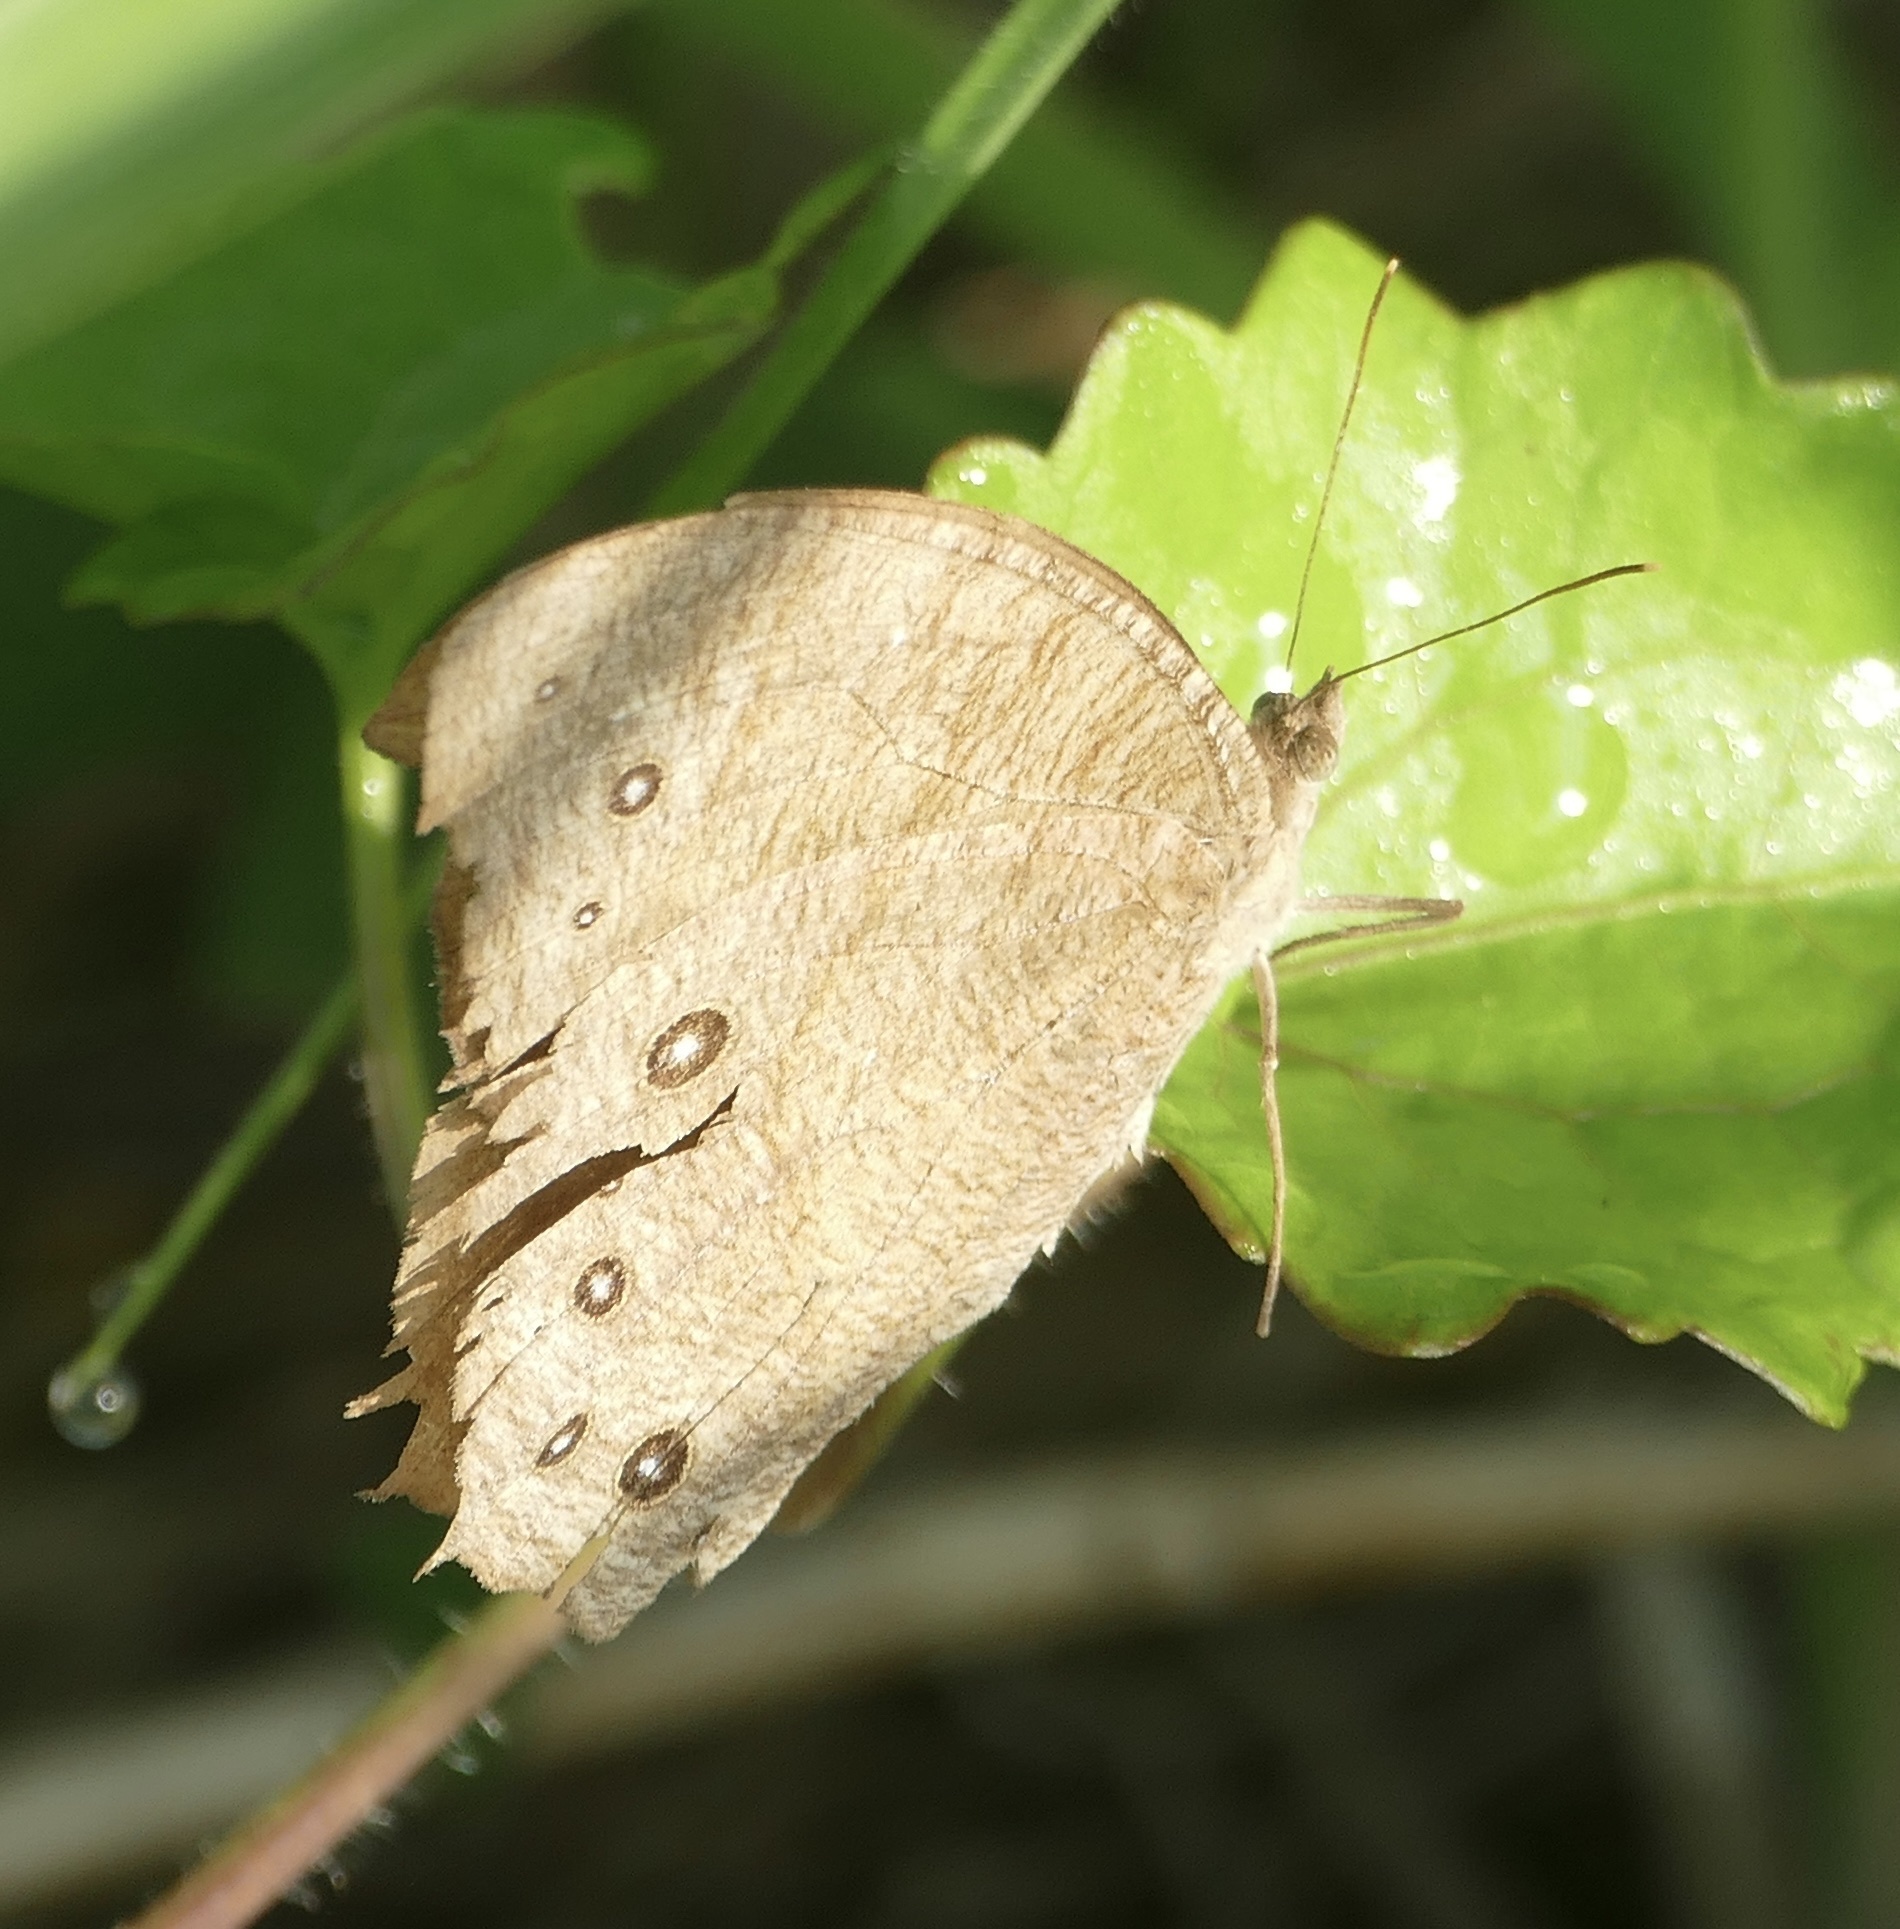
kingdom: Animalia
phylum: Arthropoda
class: Insecta
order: Lepidoptera
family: Nymphalidae
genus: Melanitis
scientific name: Melanitis leda
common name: Twilight brown
